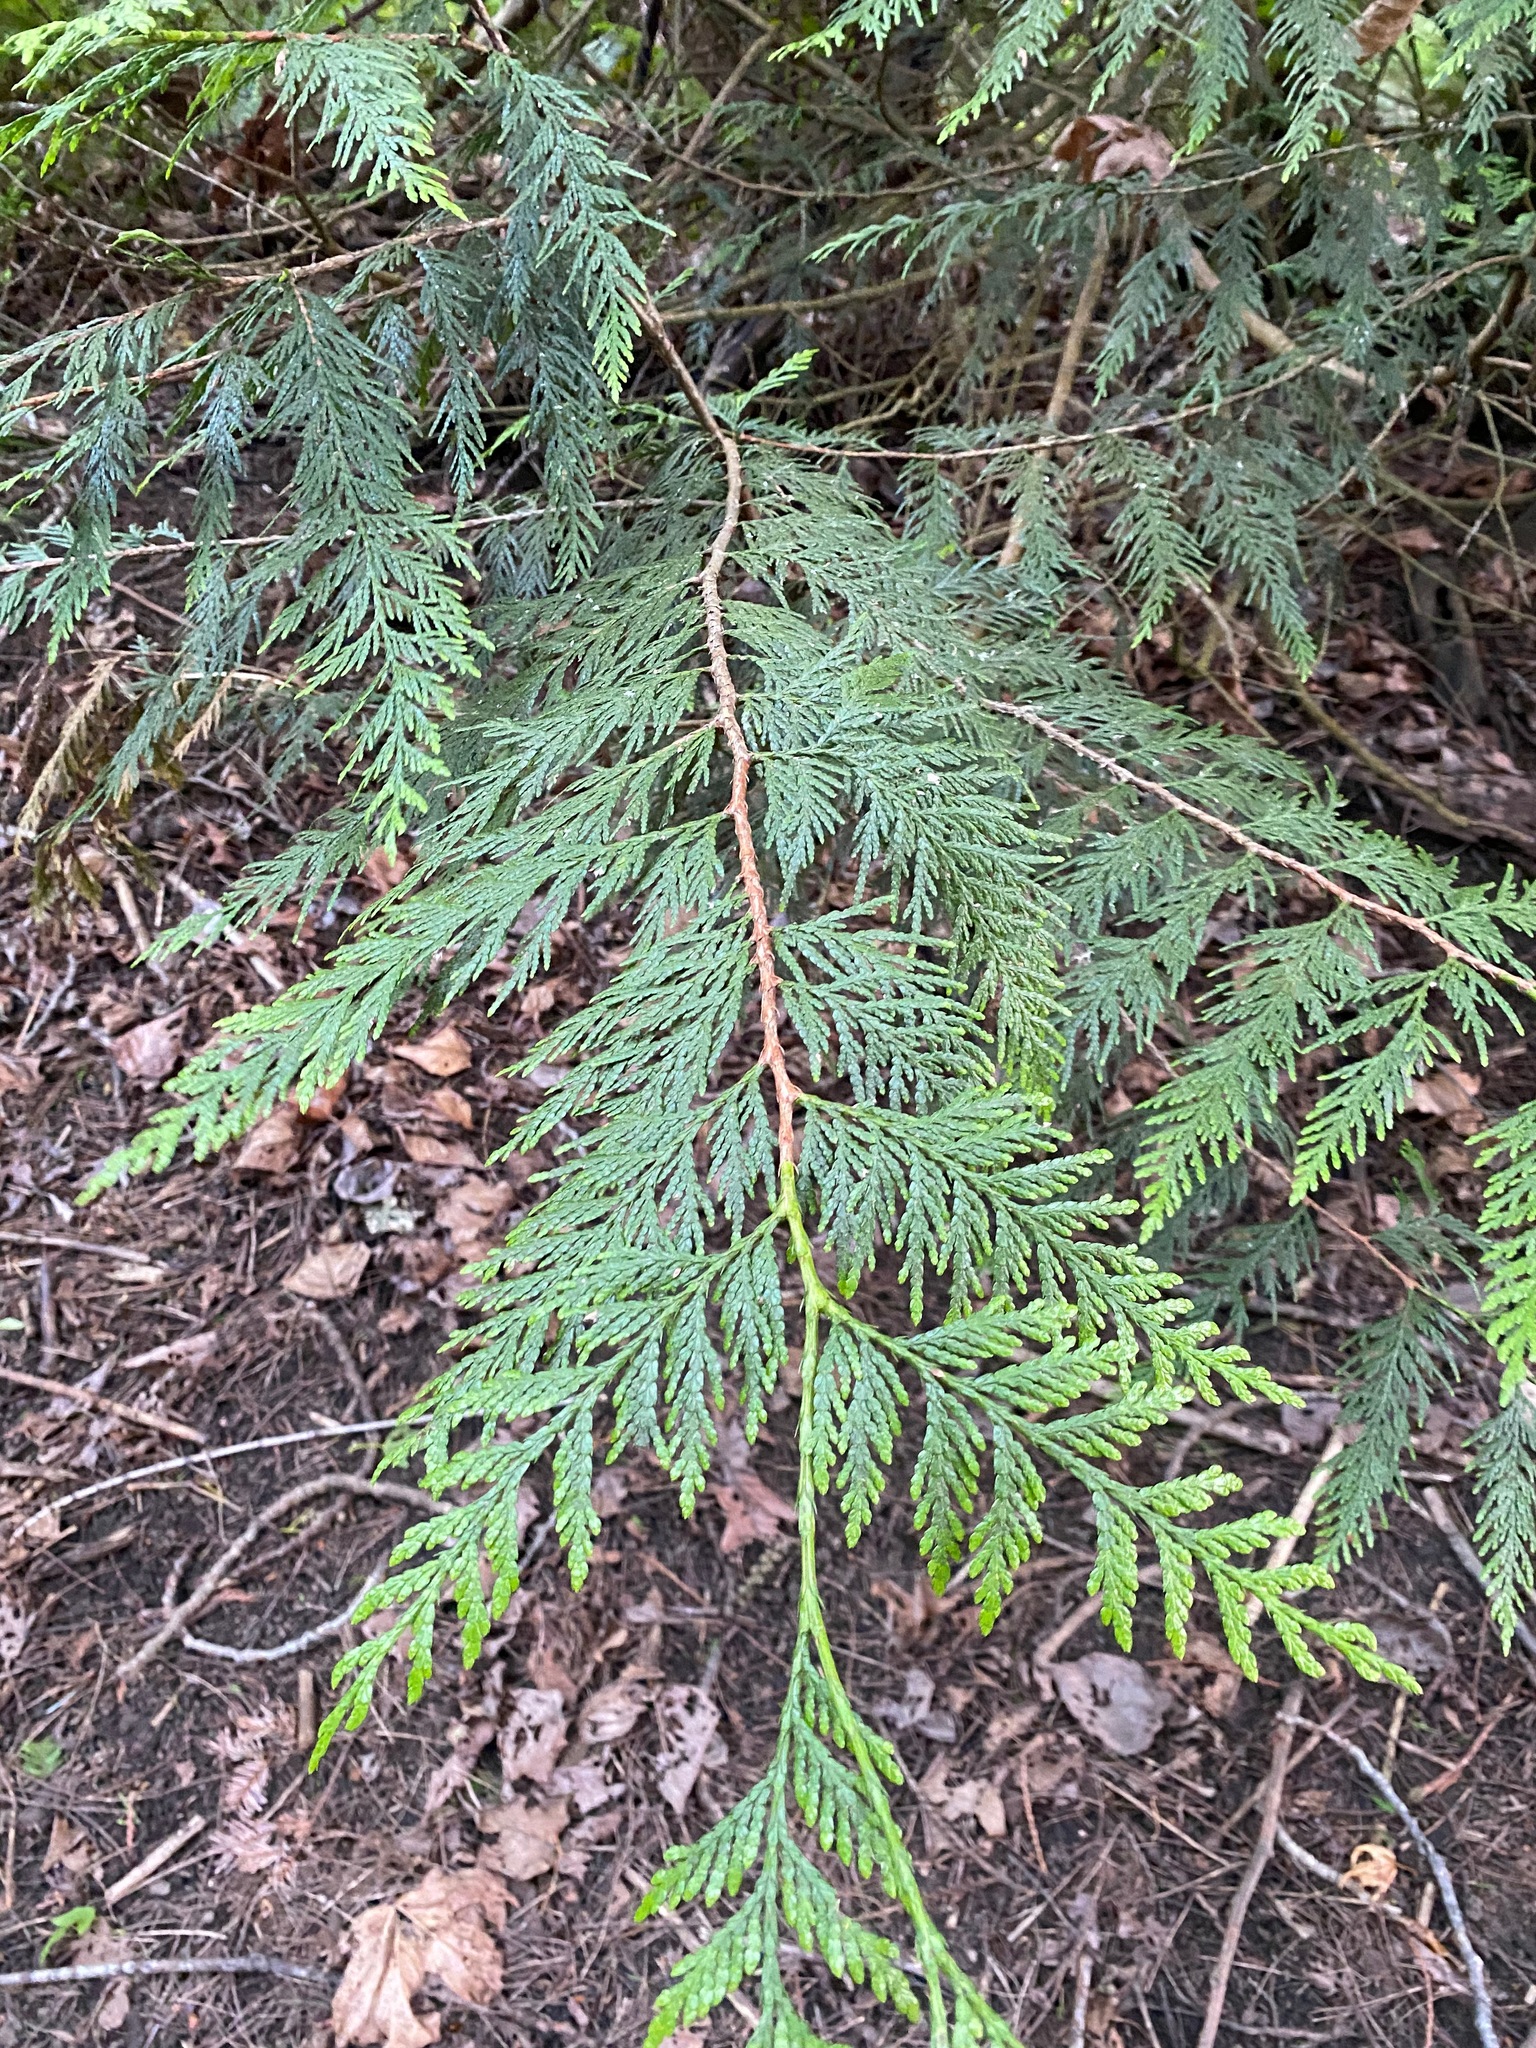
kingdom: Plantae
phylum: Tracheophyta
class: Pinopsida
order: Pinales
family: Cupressaceae
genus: Thuja
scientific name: Thuja plicata
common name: Western red-cedar
